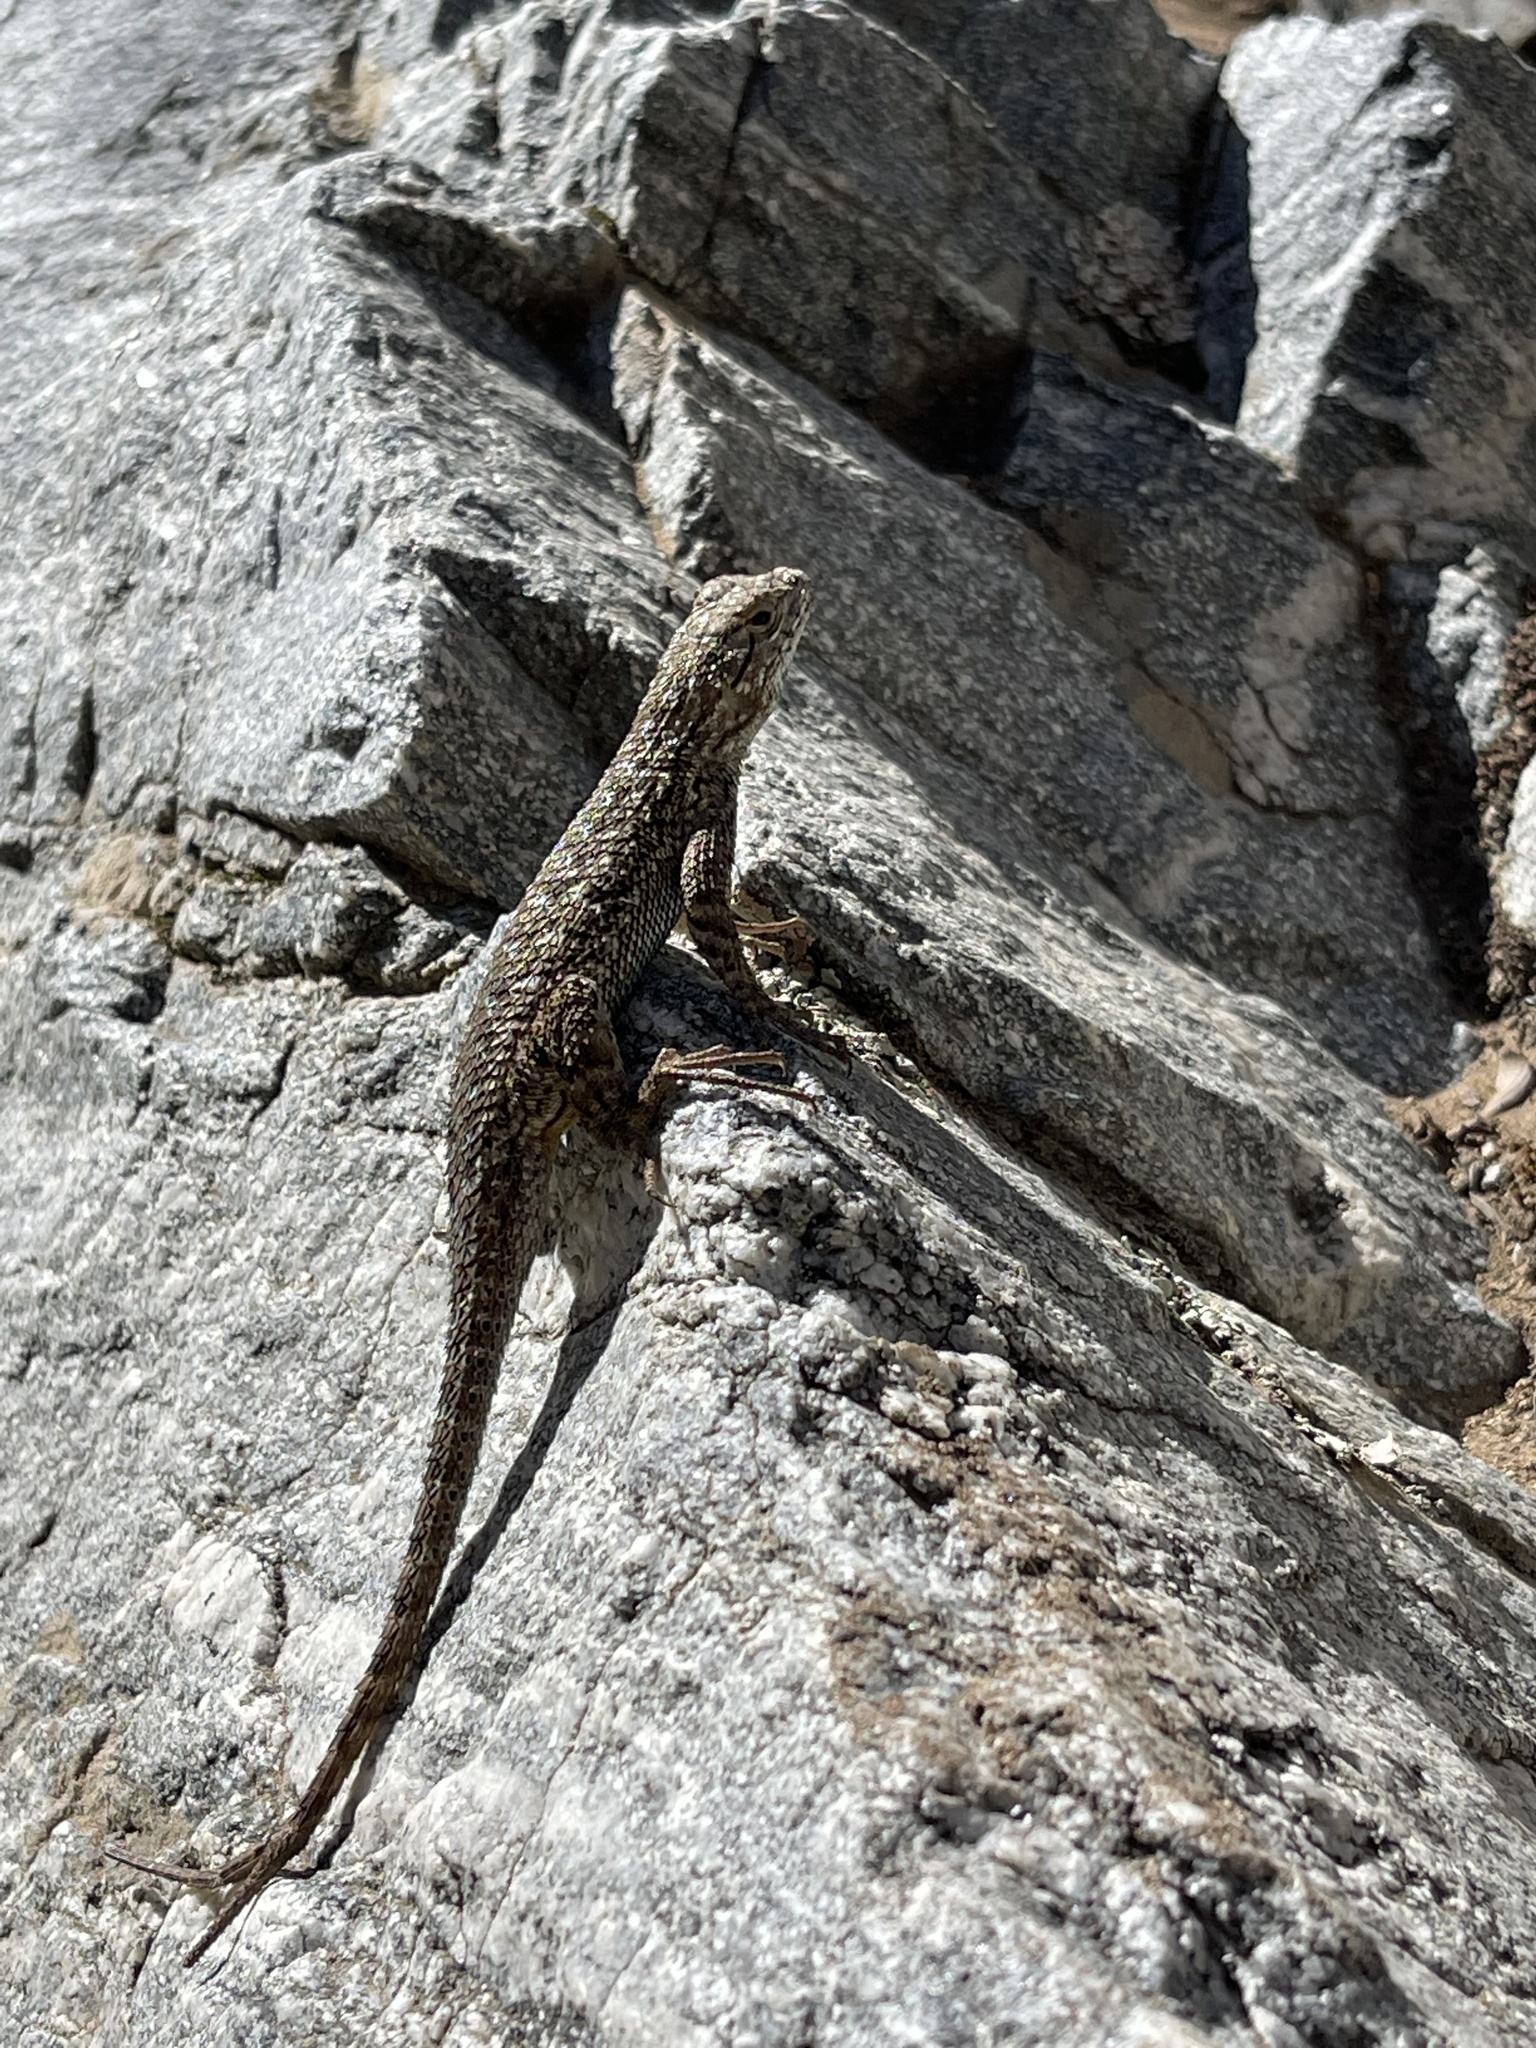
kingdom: Animalia
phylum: Chordata
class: Squamata
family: Phrynosomatidae
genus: Sceloporus
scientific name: Sceloporus occidentalis
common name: Western fence lizard
